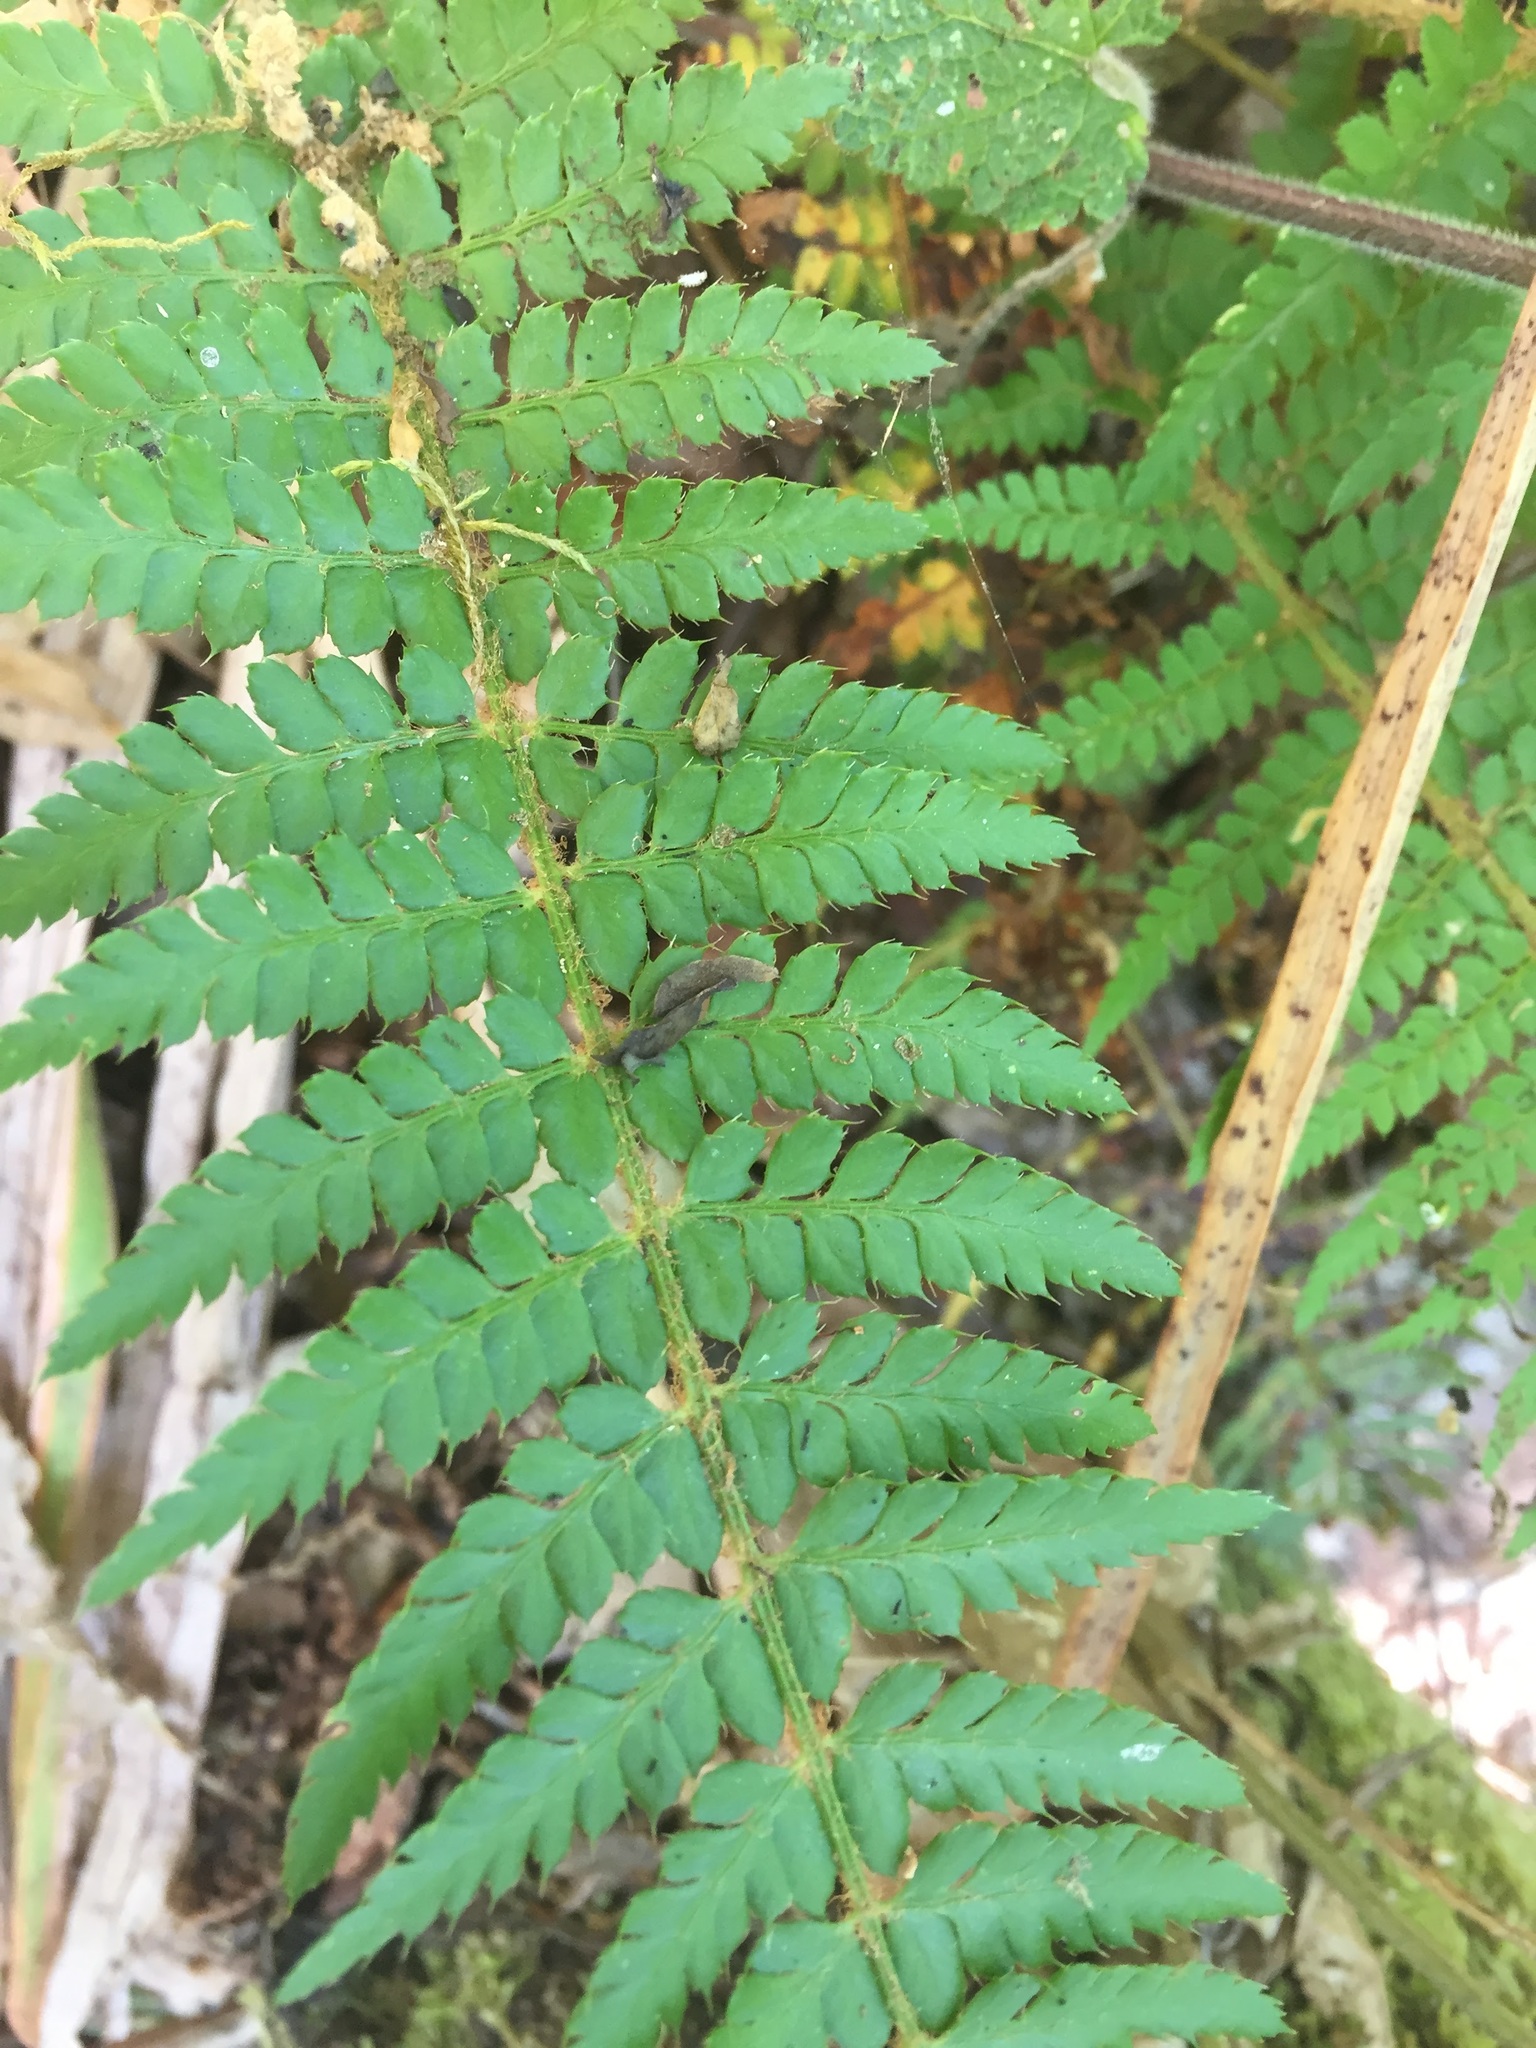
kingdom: Plantae
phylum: Tracheophyta
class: Polypodiopsida
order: Polypodiales
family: Dryopteridaceae
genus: Polystichum
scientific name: Polystichum setiferum
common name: Soft shield-fern
